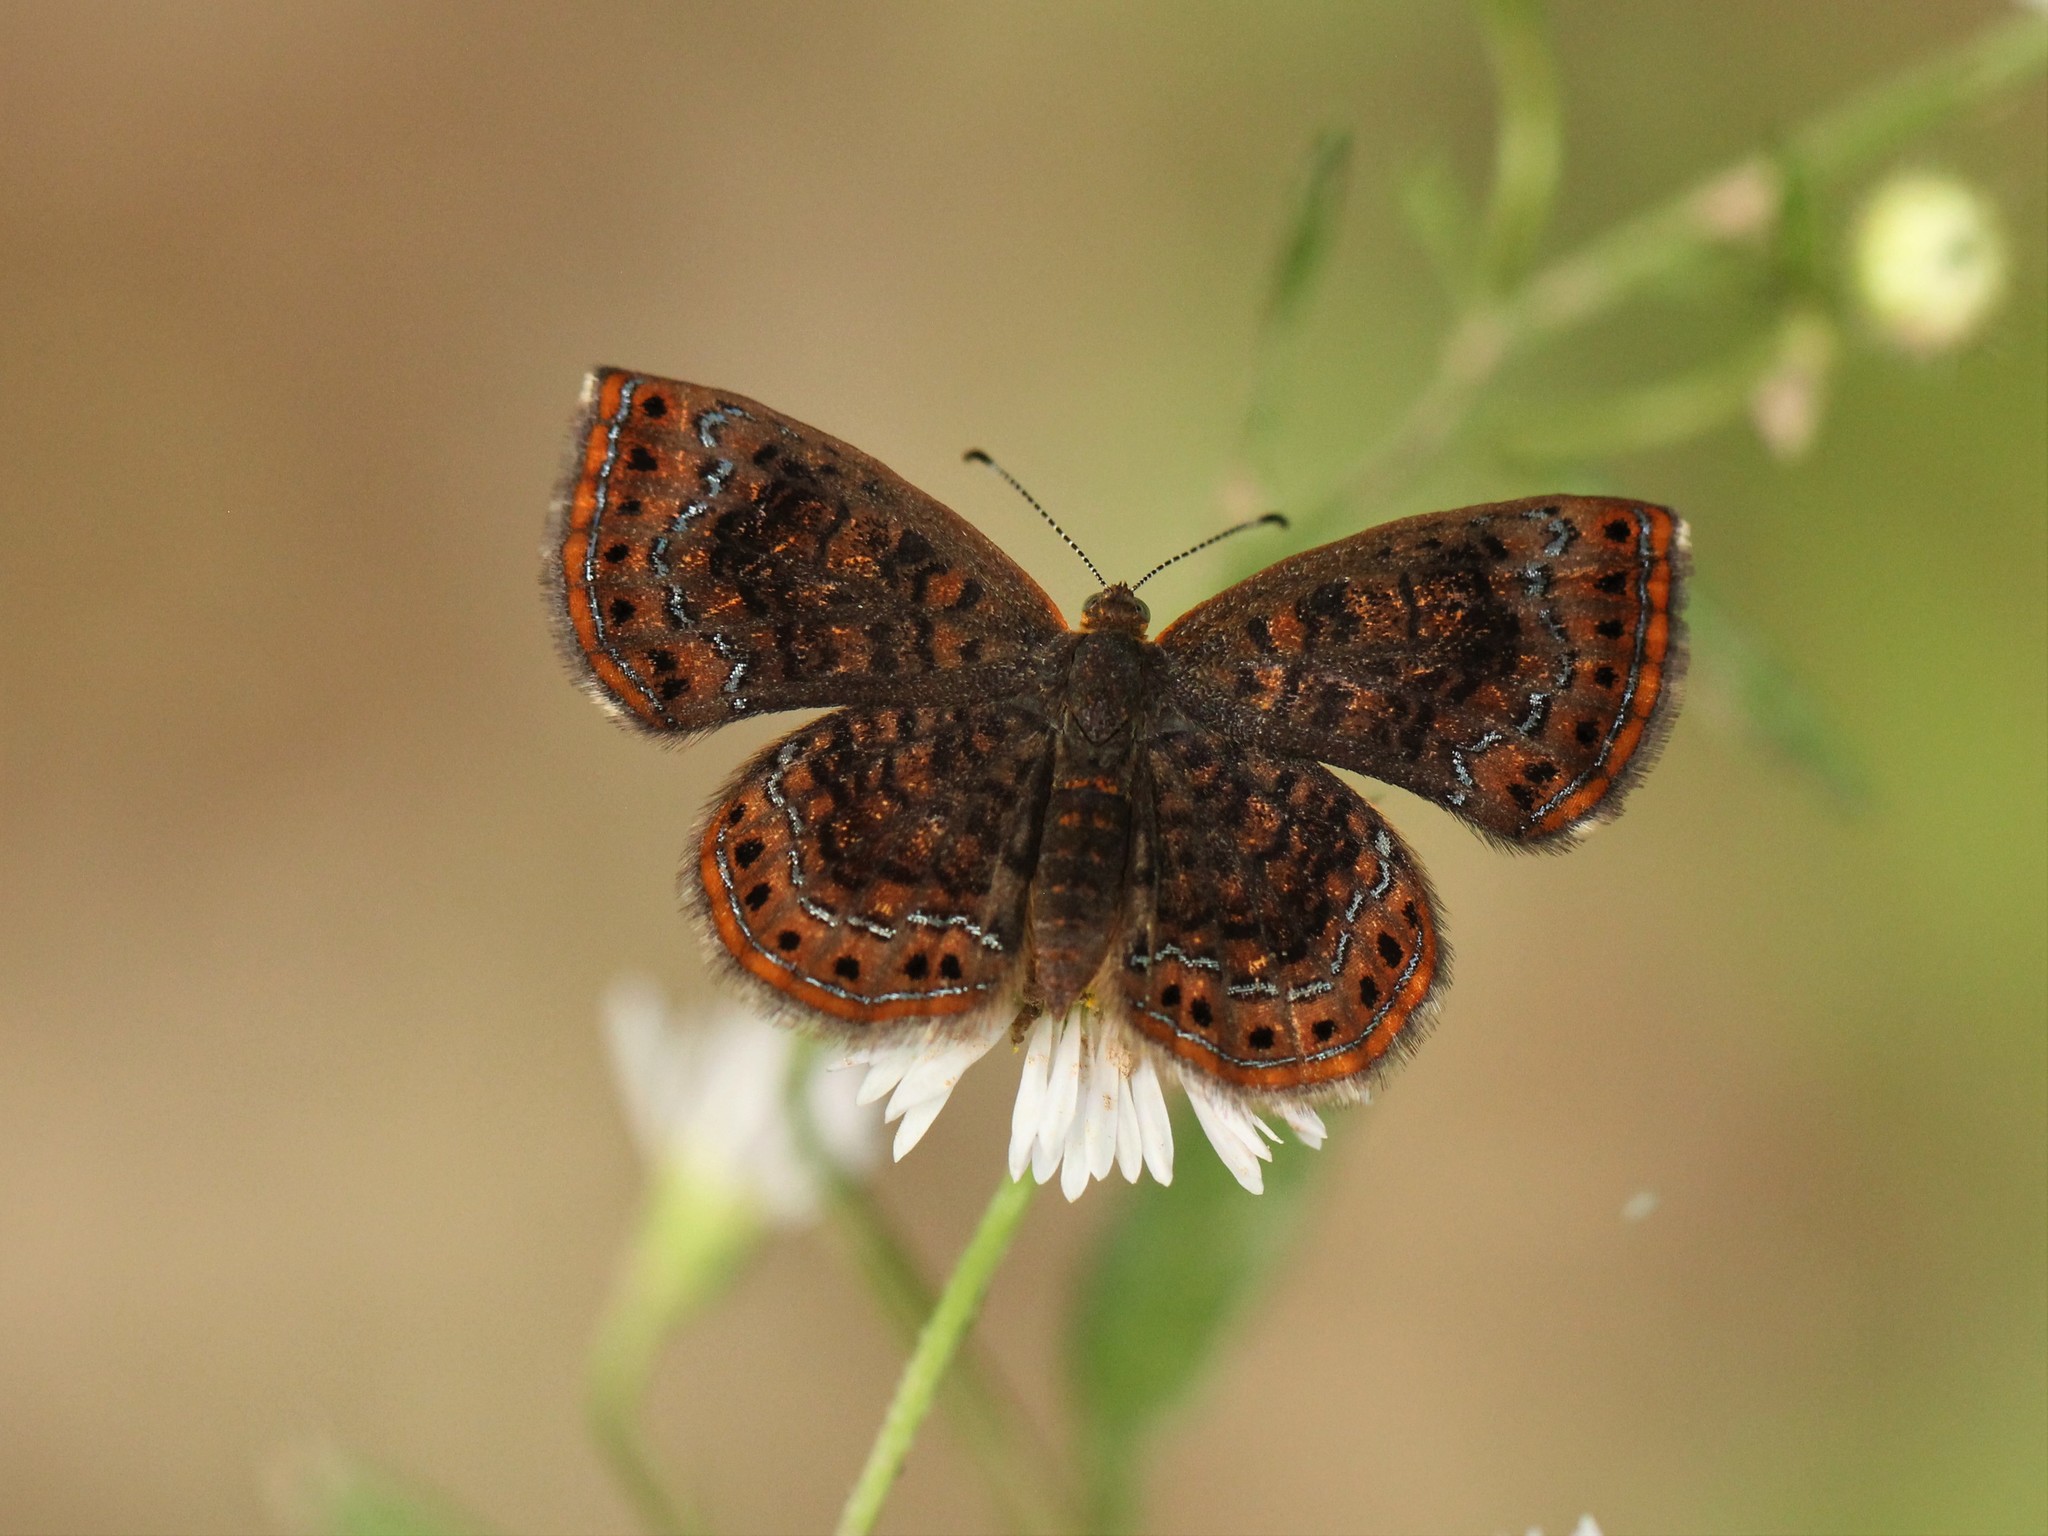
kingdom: Animalia
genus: Calephelis
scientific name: Calephelis borealis
